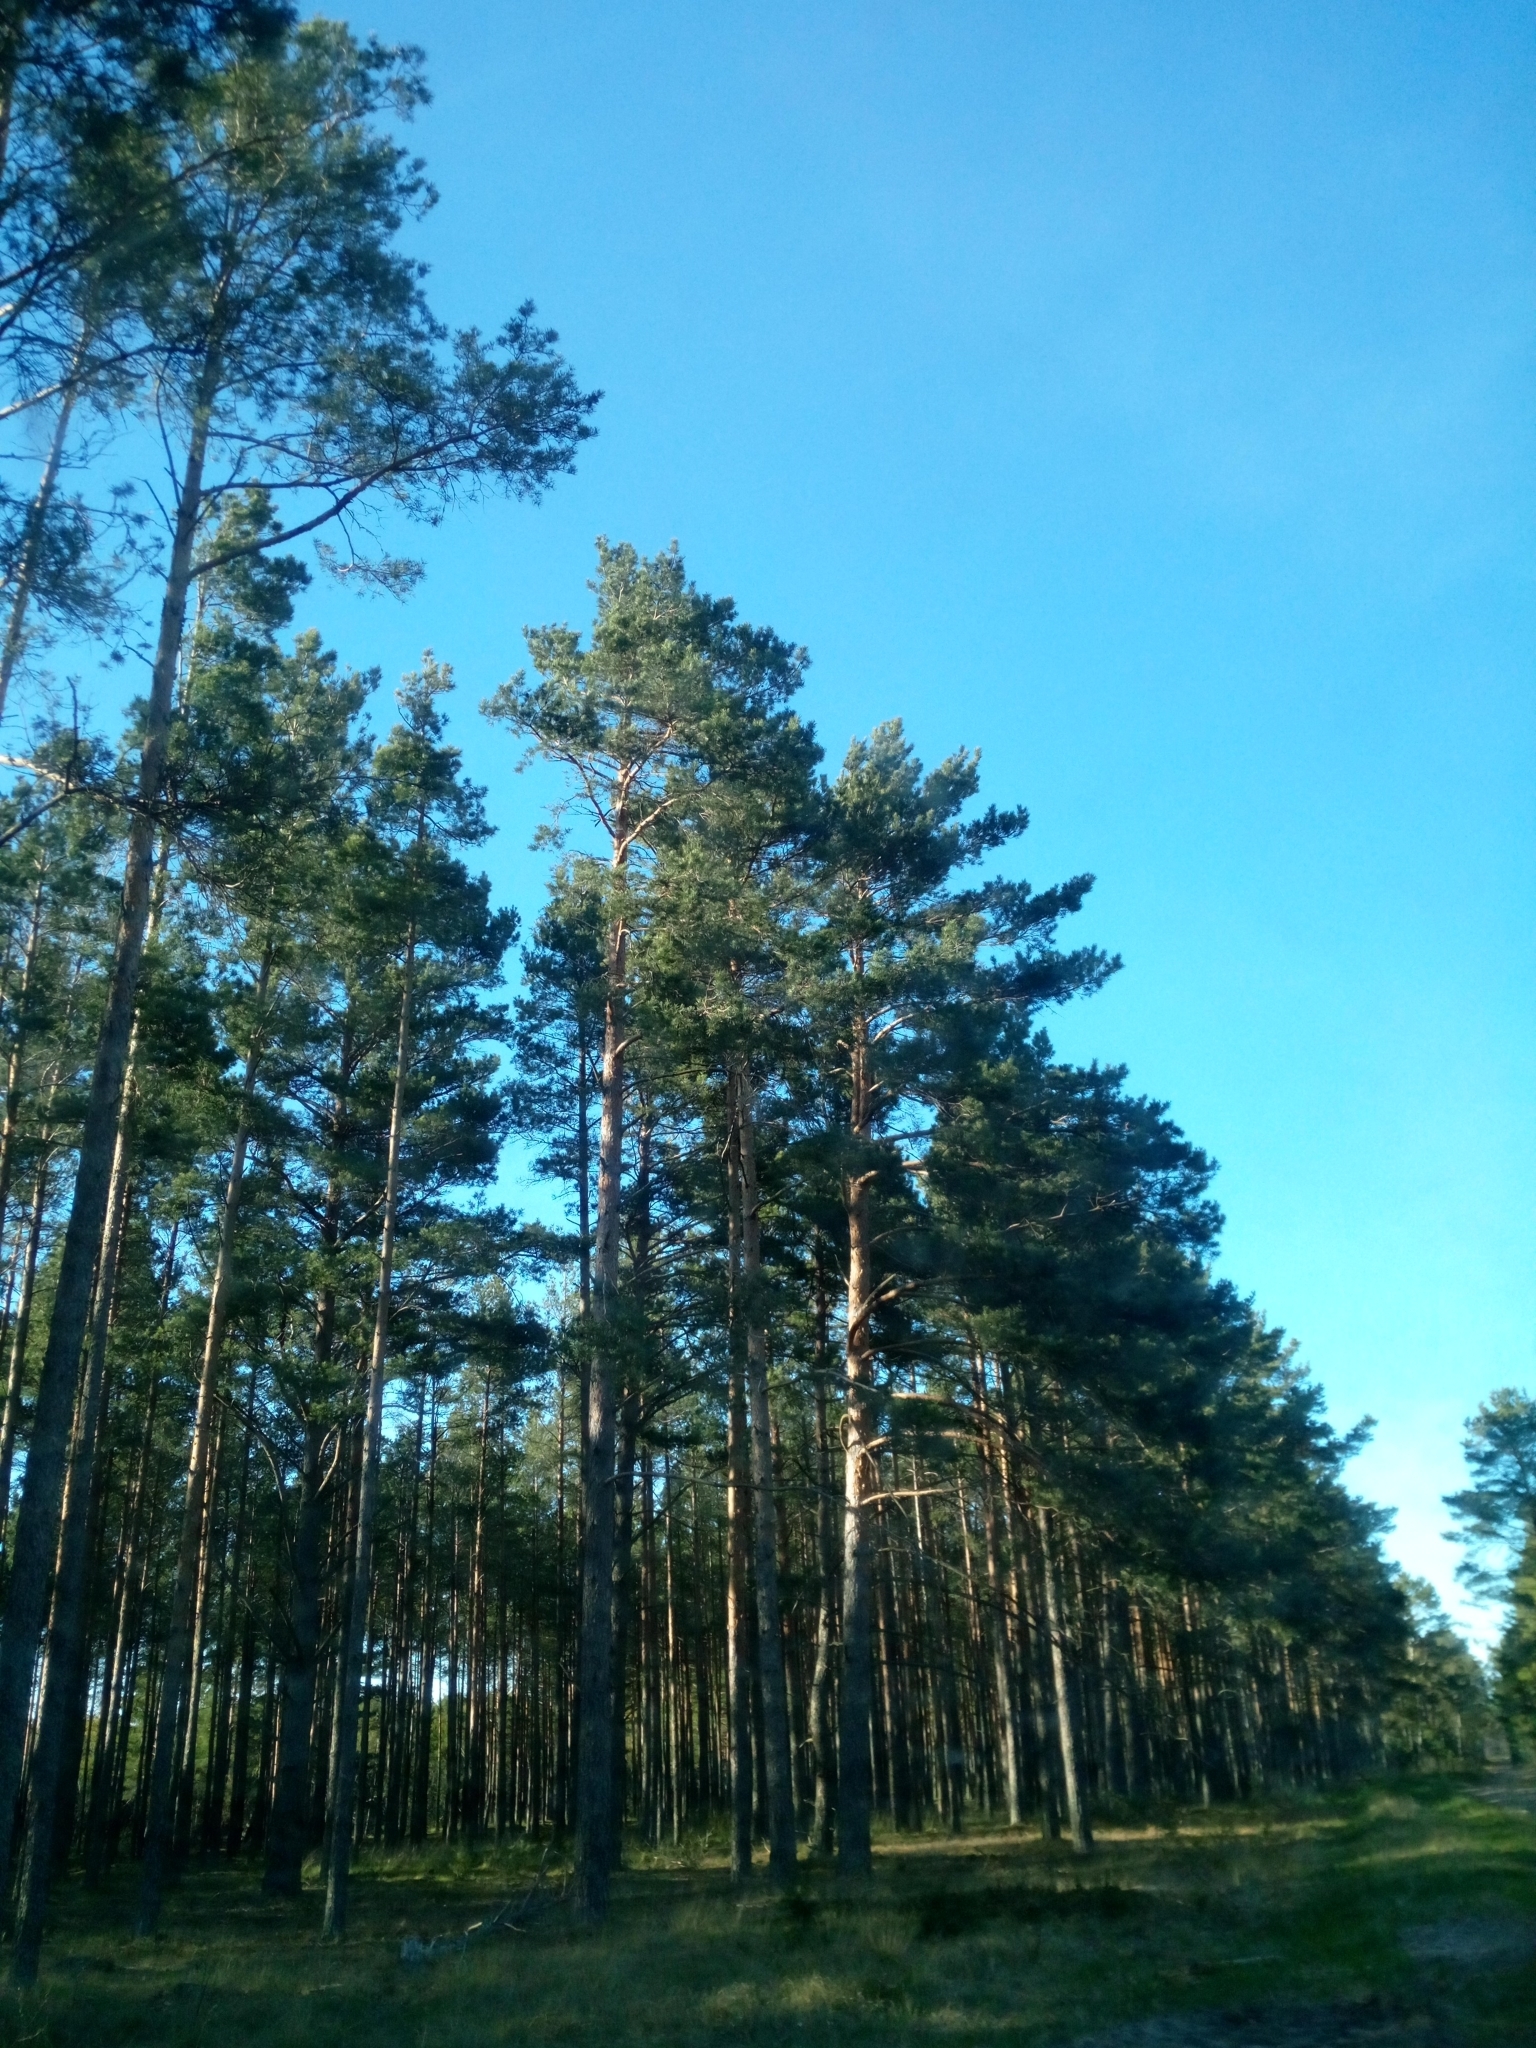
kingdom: Plantae
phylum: Tracheophyta
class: Pinopsida
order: Pinales
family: Pinaceae
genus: Pinus
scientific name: Pinus sylvestris
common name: Scots pine
